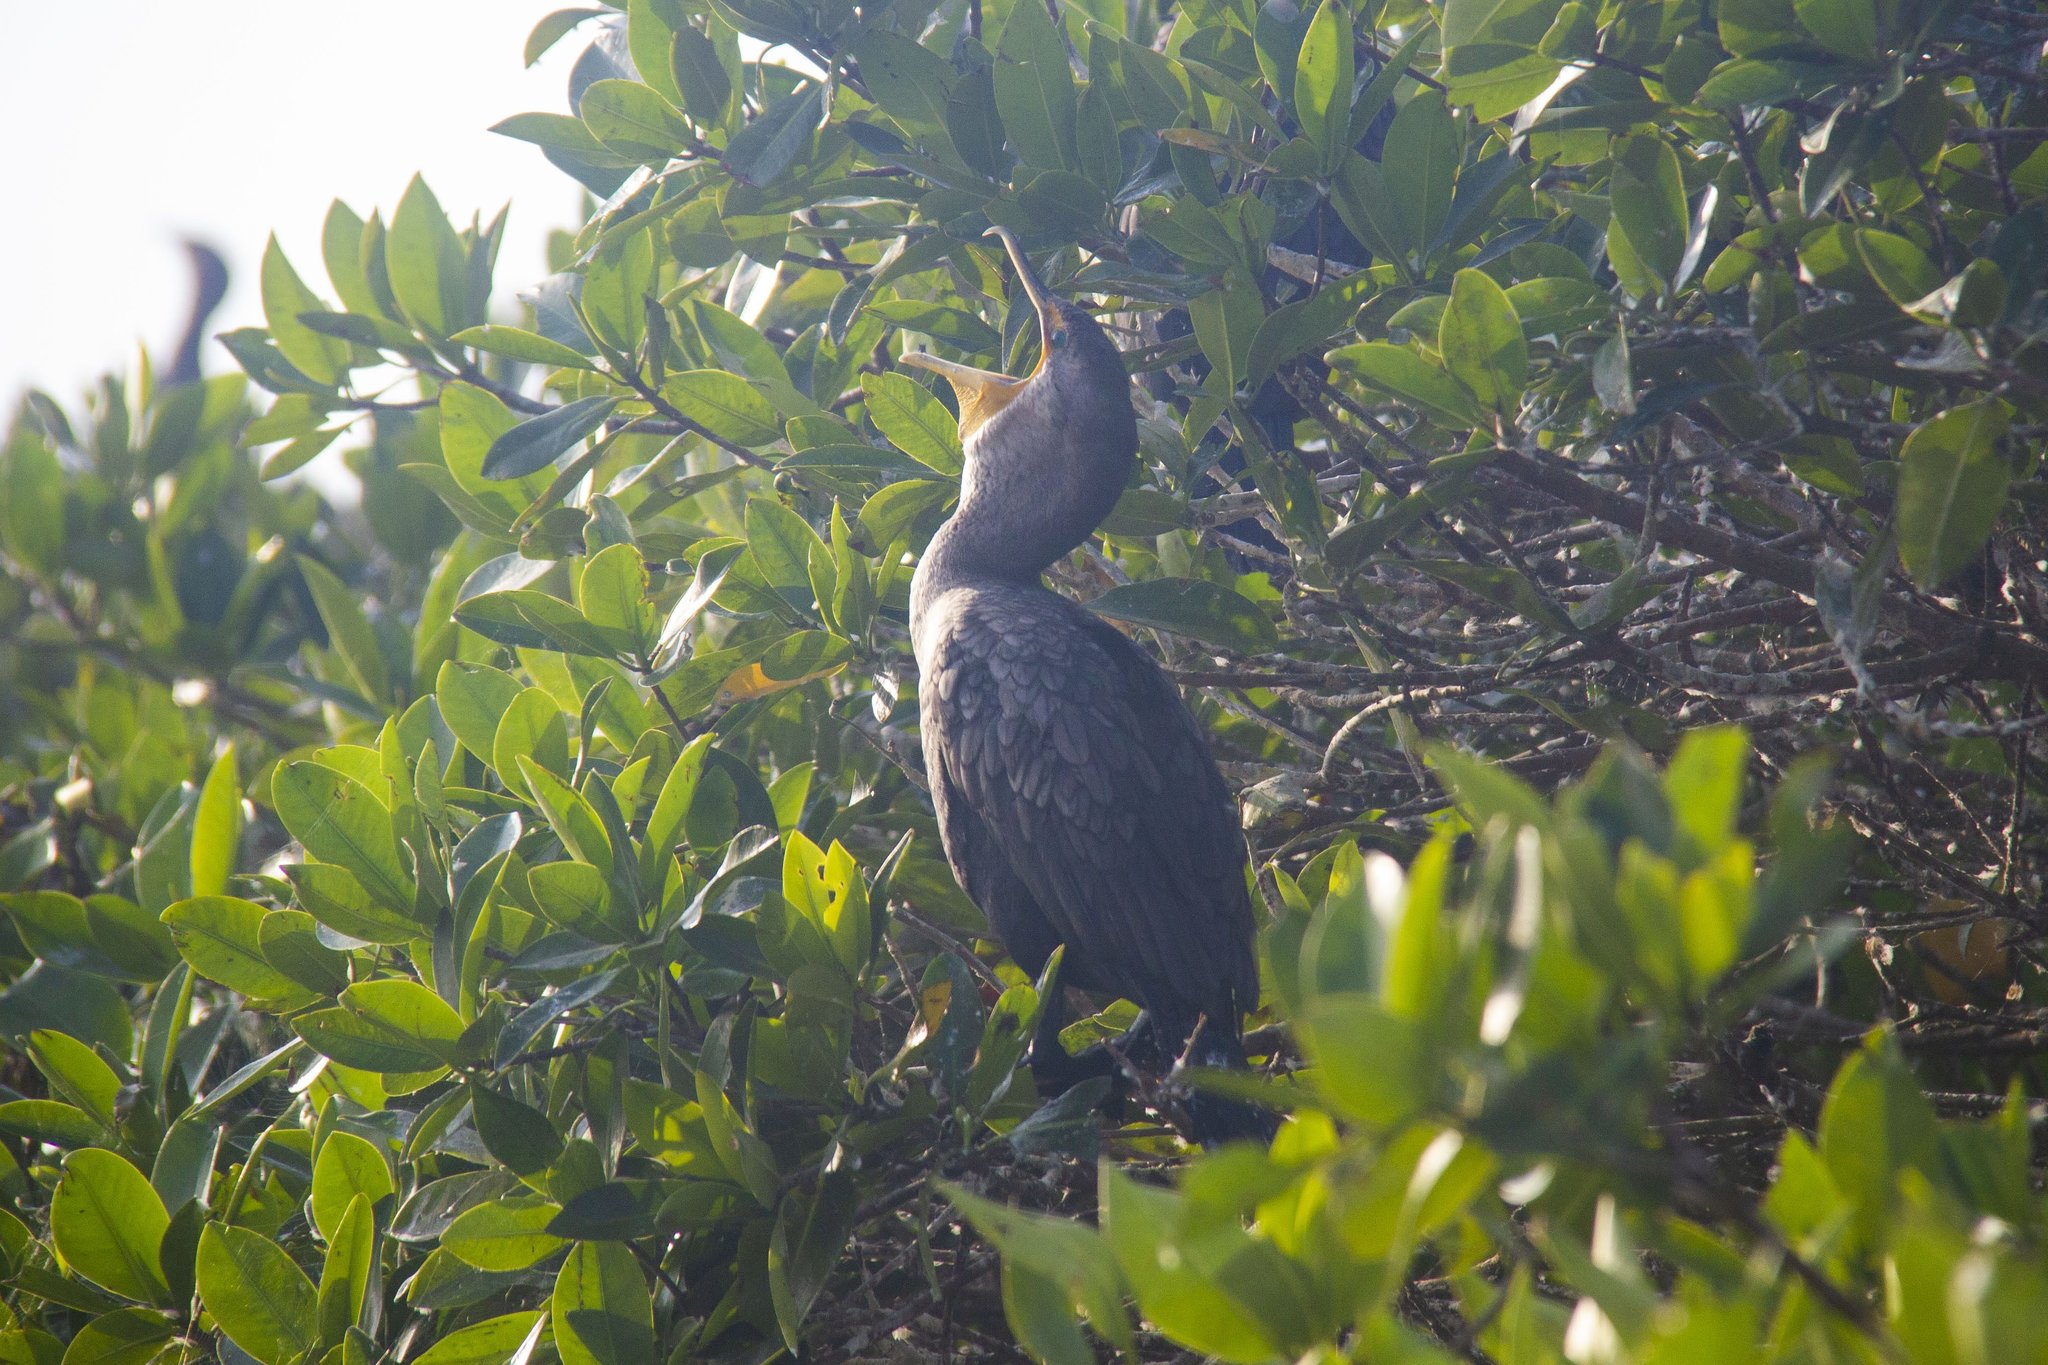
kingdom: Animalia
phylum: Chordata
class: Aves
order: Suliformes
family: Phalacrocoracidae
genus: Phalacrocorax
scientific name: Phalacrocorax auritus
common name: Double-crested cormorant
